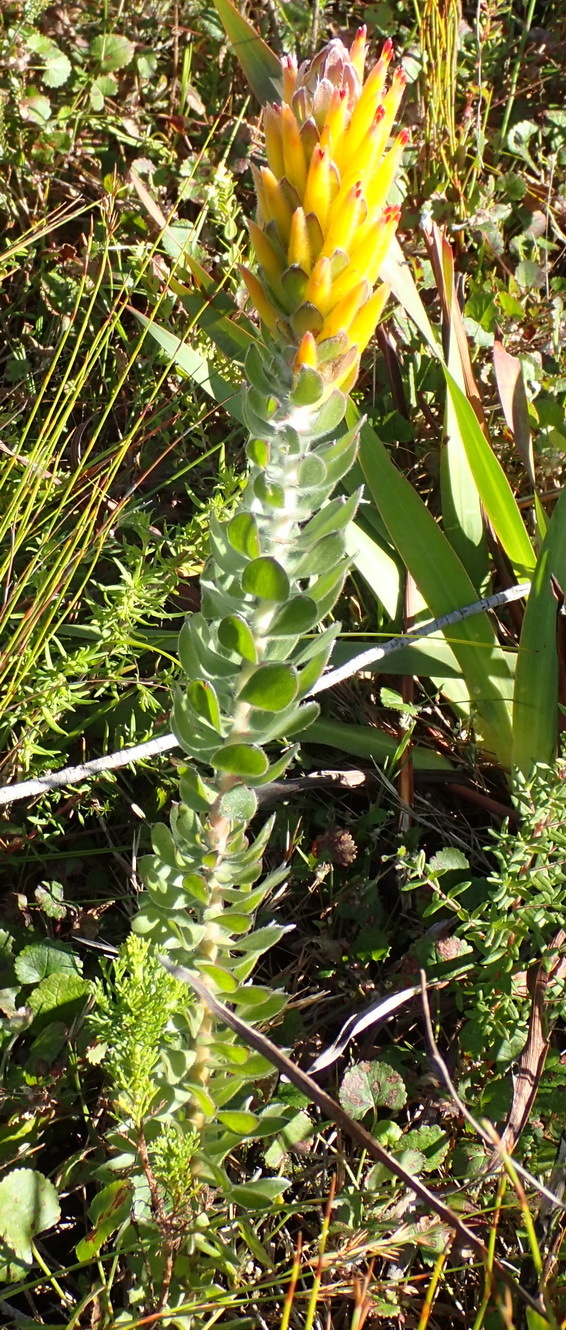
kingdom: Plantae
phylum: Tracheophyta
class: Magnoliopsida
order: Proteales
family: Proteaceae
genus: Mimetes
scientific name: Mimetes pauciflora
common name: Three-flowered pagoda
